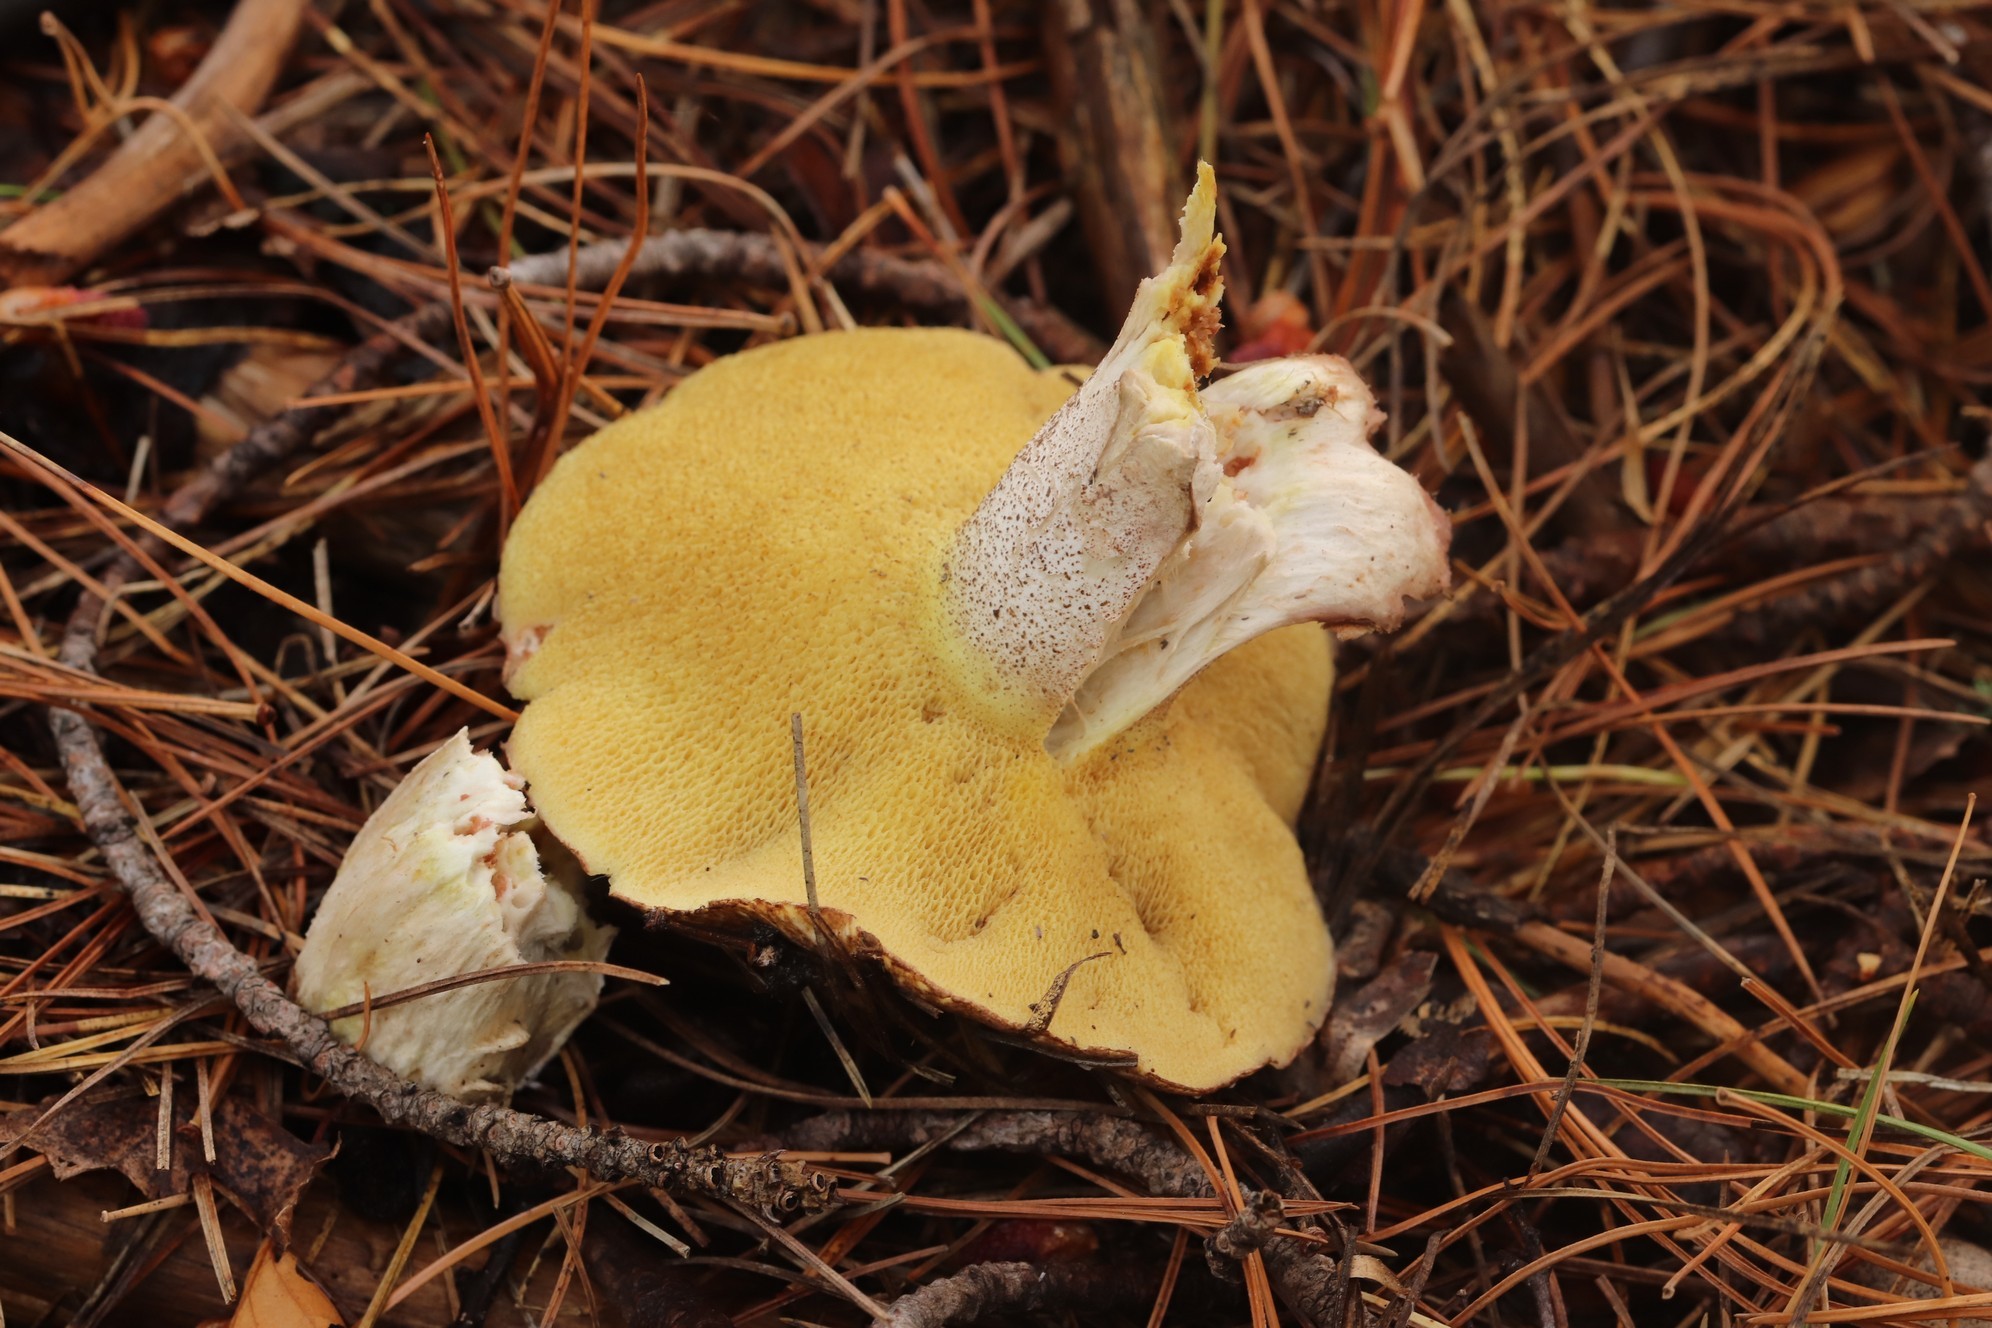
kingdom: Fungi
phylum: Basidiomycota
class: Agaricomycetes
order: Boletales
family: Suillaceae
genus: Suillus
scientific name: Suillus placidus
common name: Slippery white bolete
